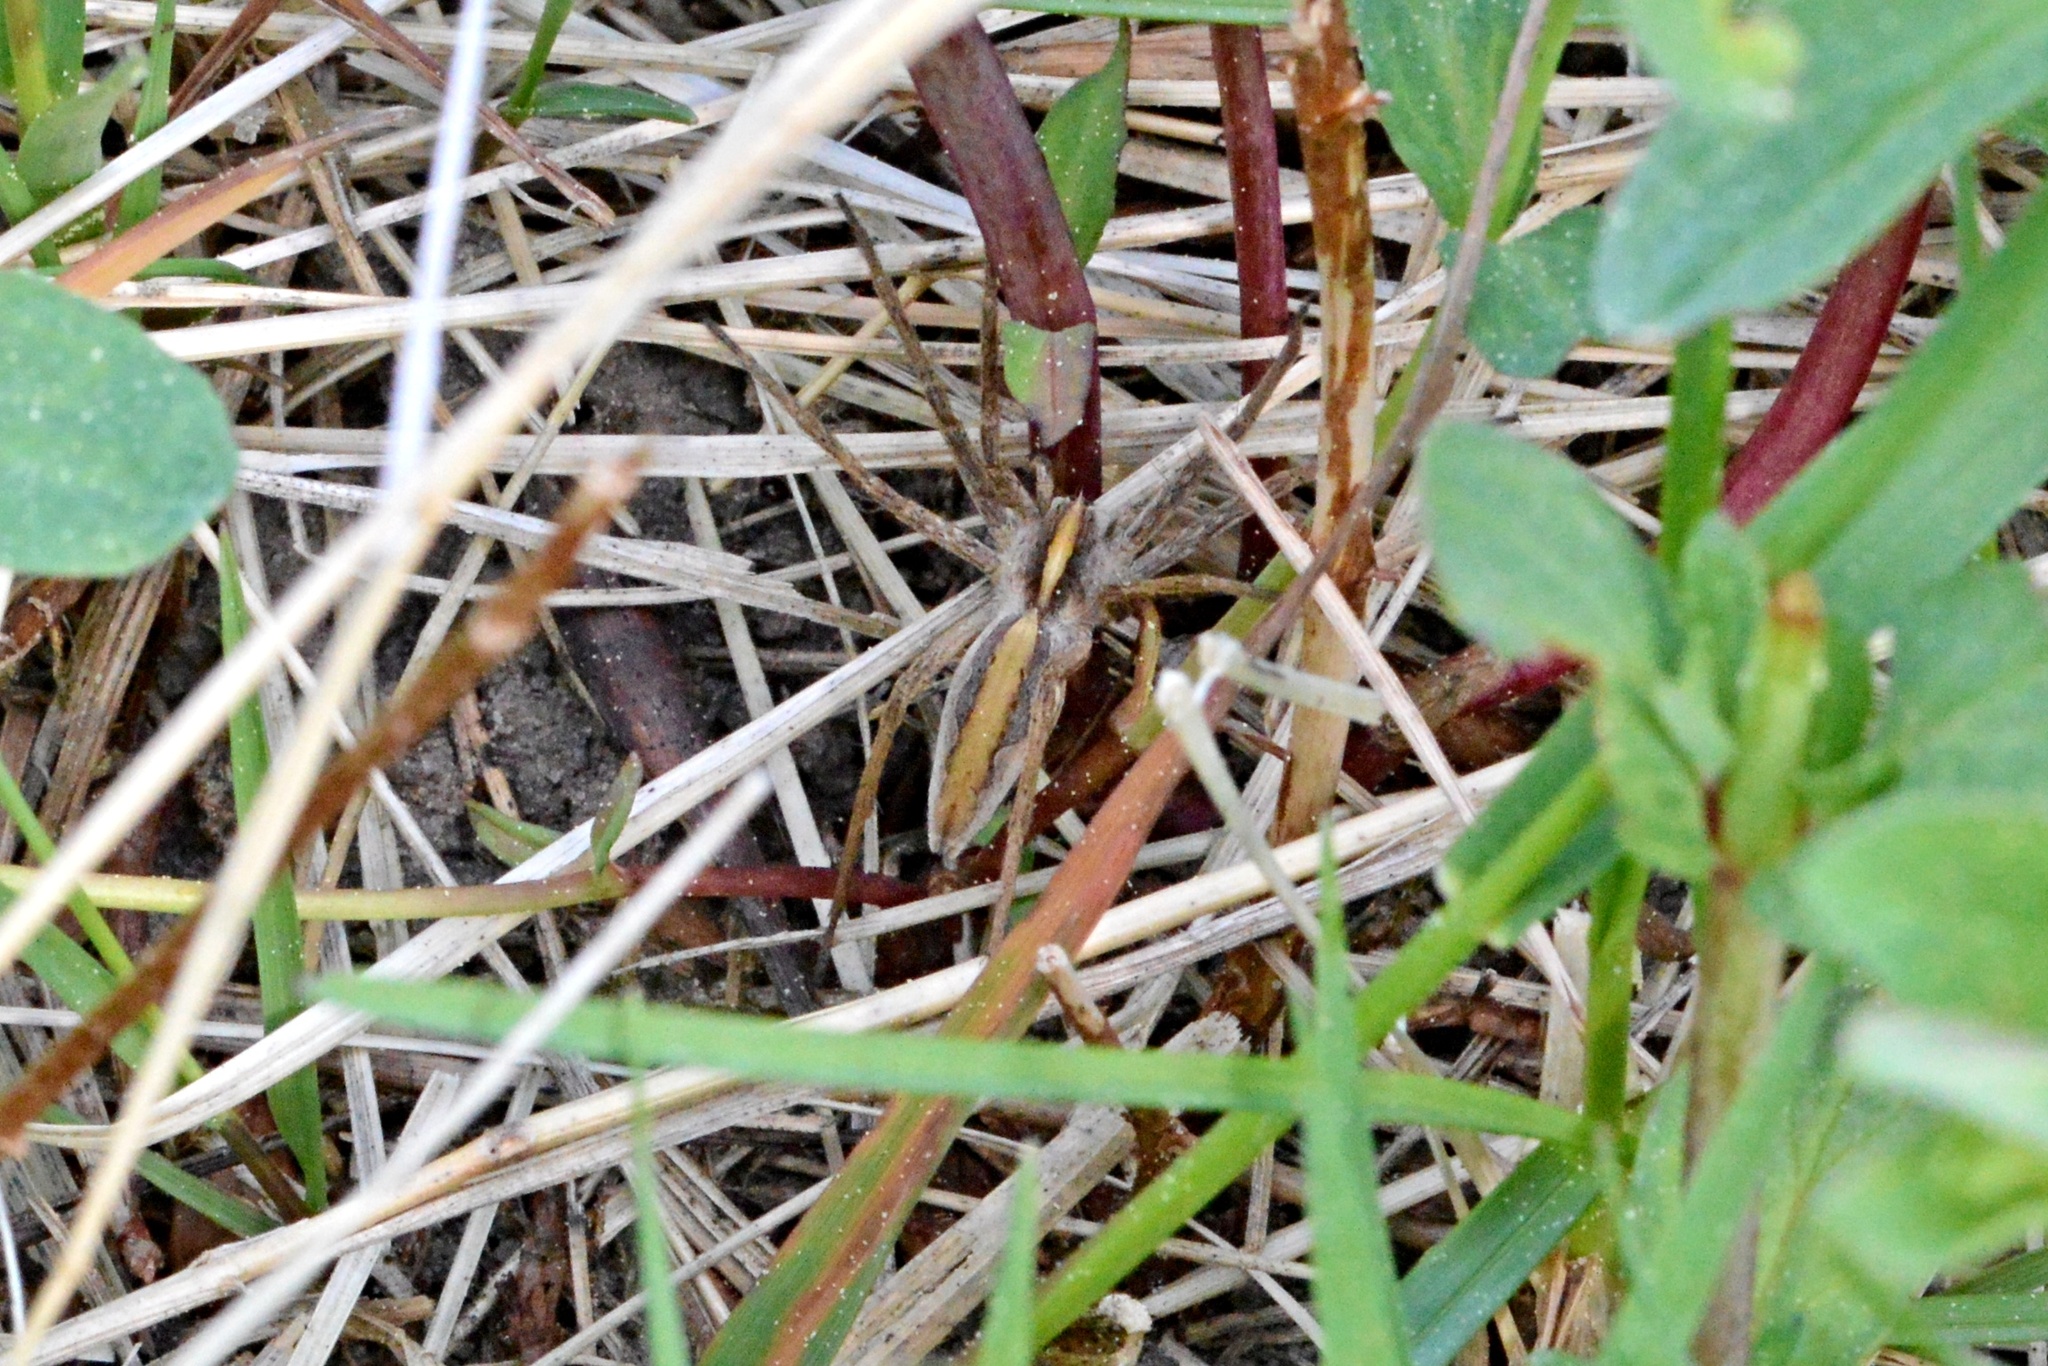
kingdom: Animalia
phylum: Arthropoda
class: Arachnida
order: Araneae
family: Pisauridae
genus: Pisaura
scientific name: Pisaura mirabilis
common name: Tent spider
